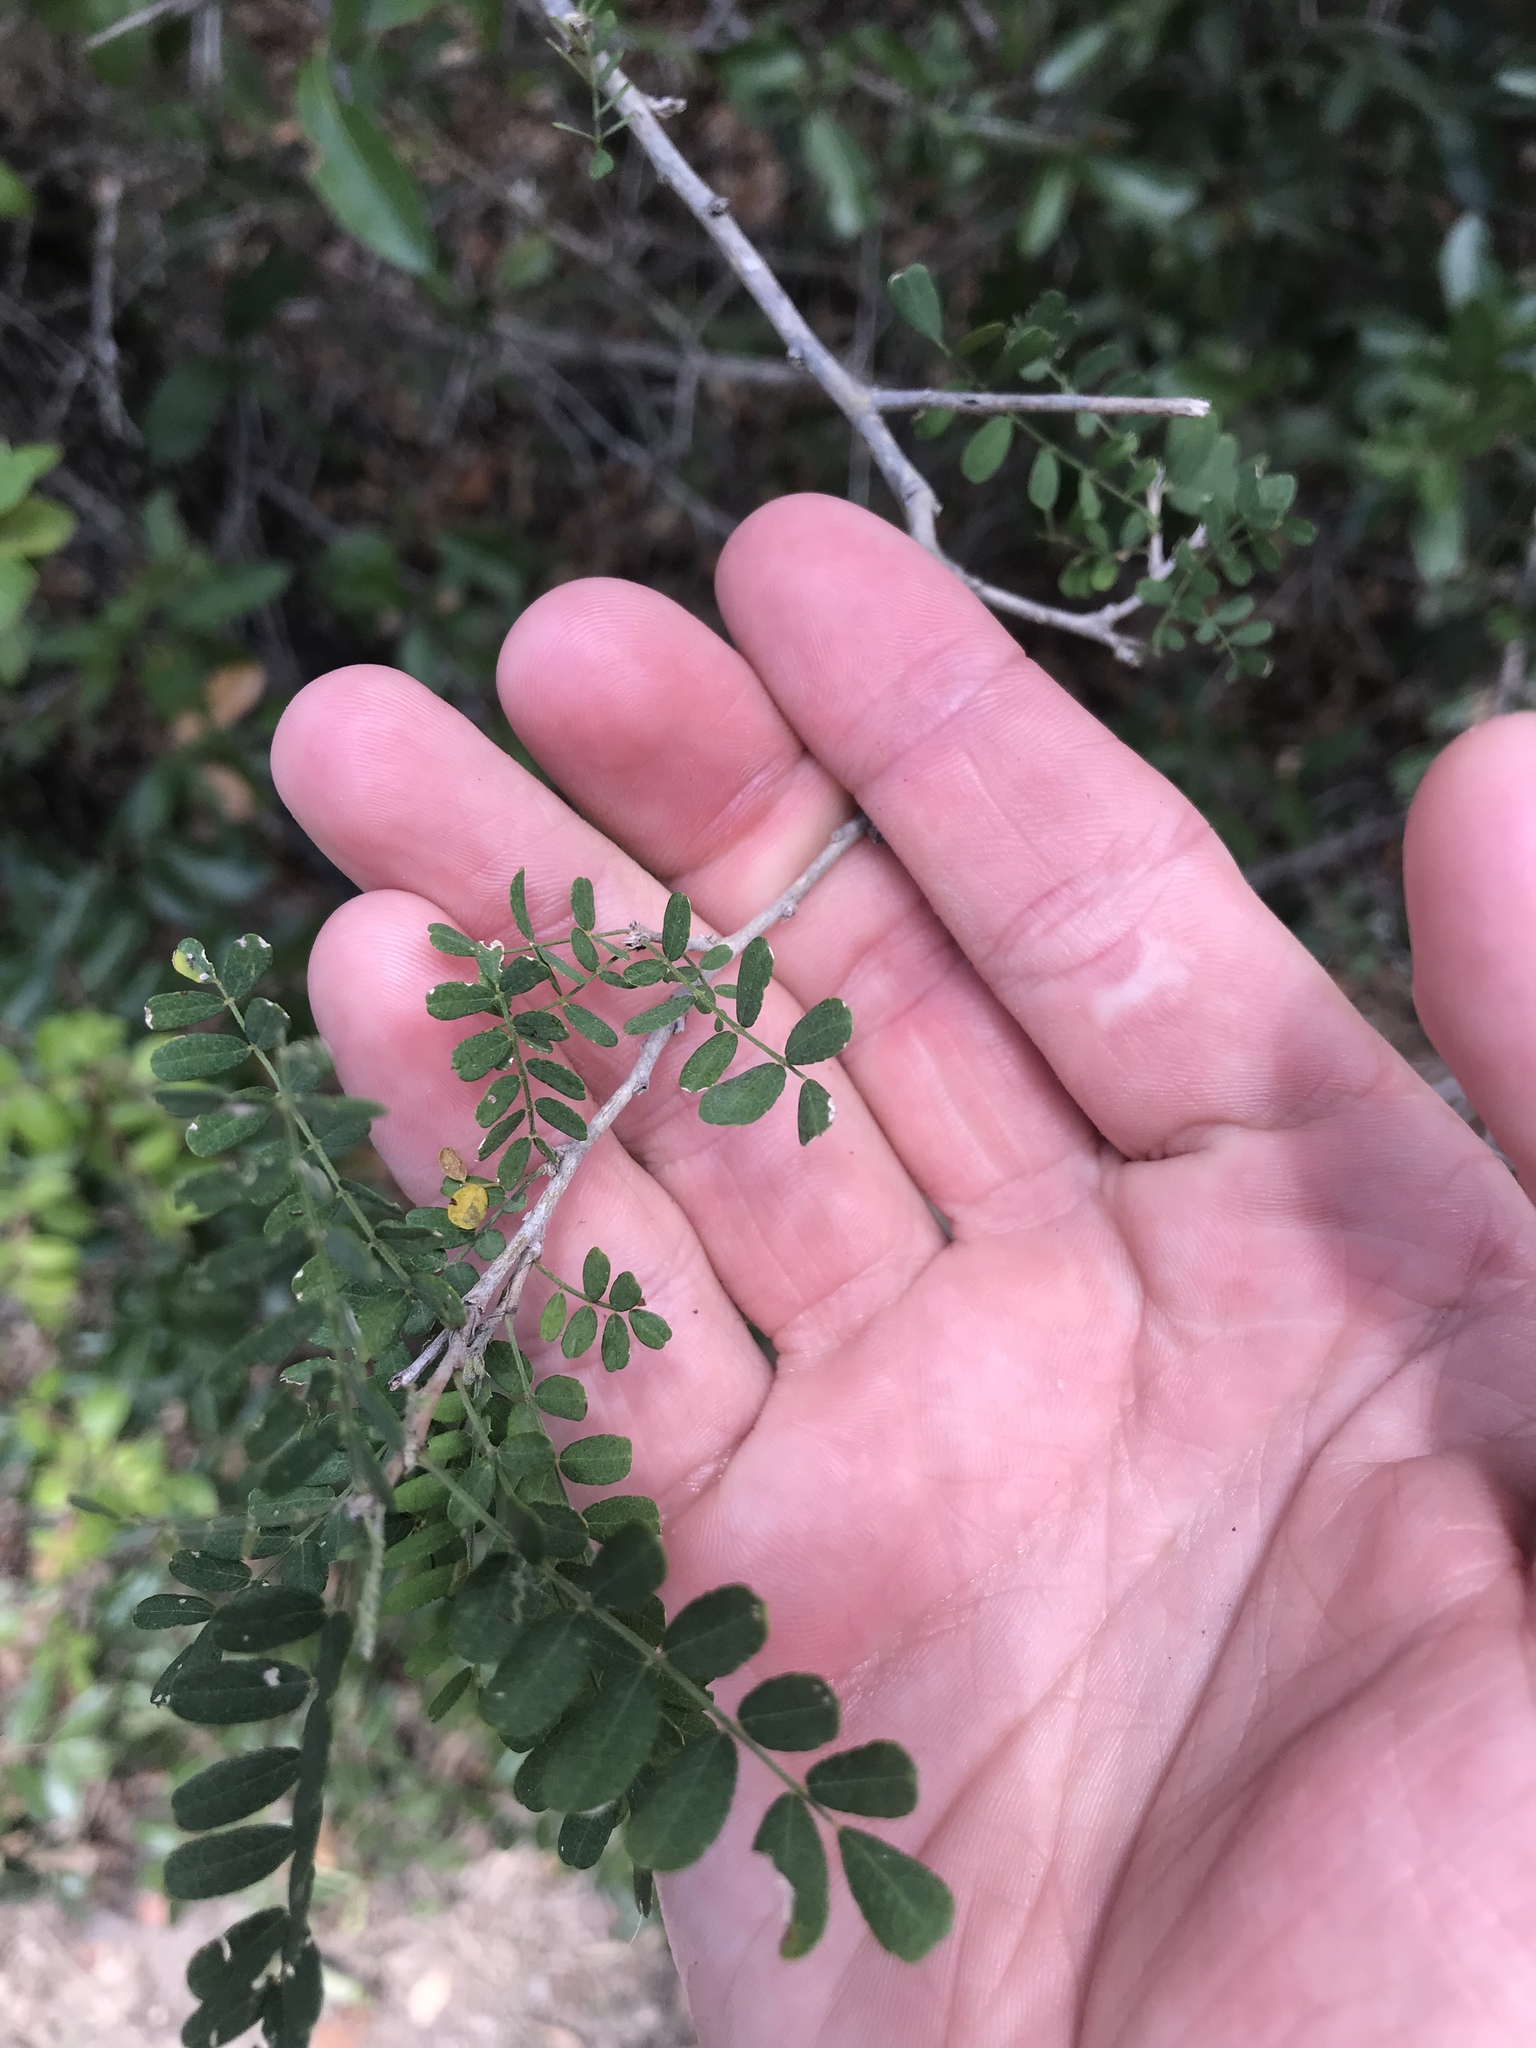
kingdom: Plantae
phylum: Tracheophyta
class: Magnoliopsida
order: Fabales
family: Fabaceae
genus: Eysenhardtia
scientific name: Eysenhardtia texana
